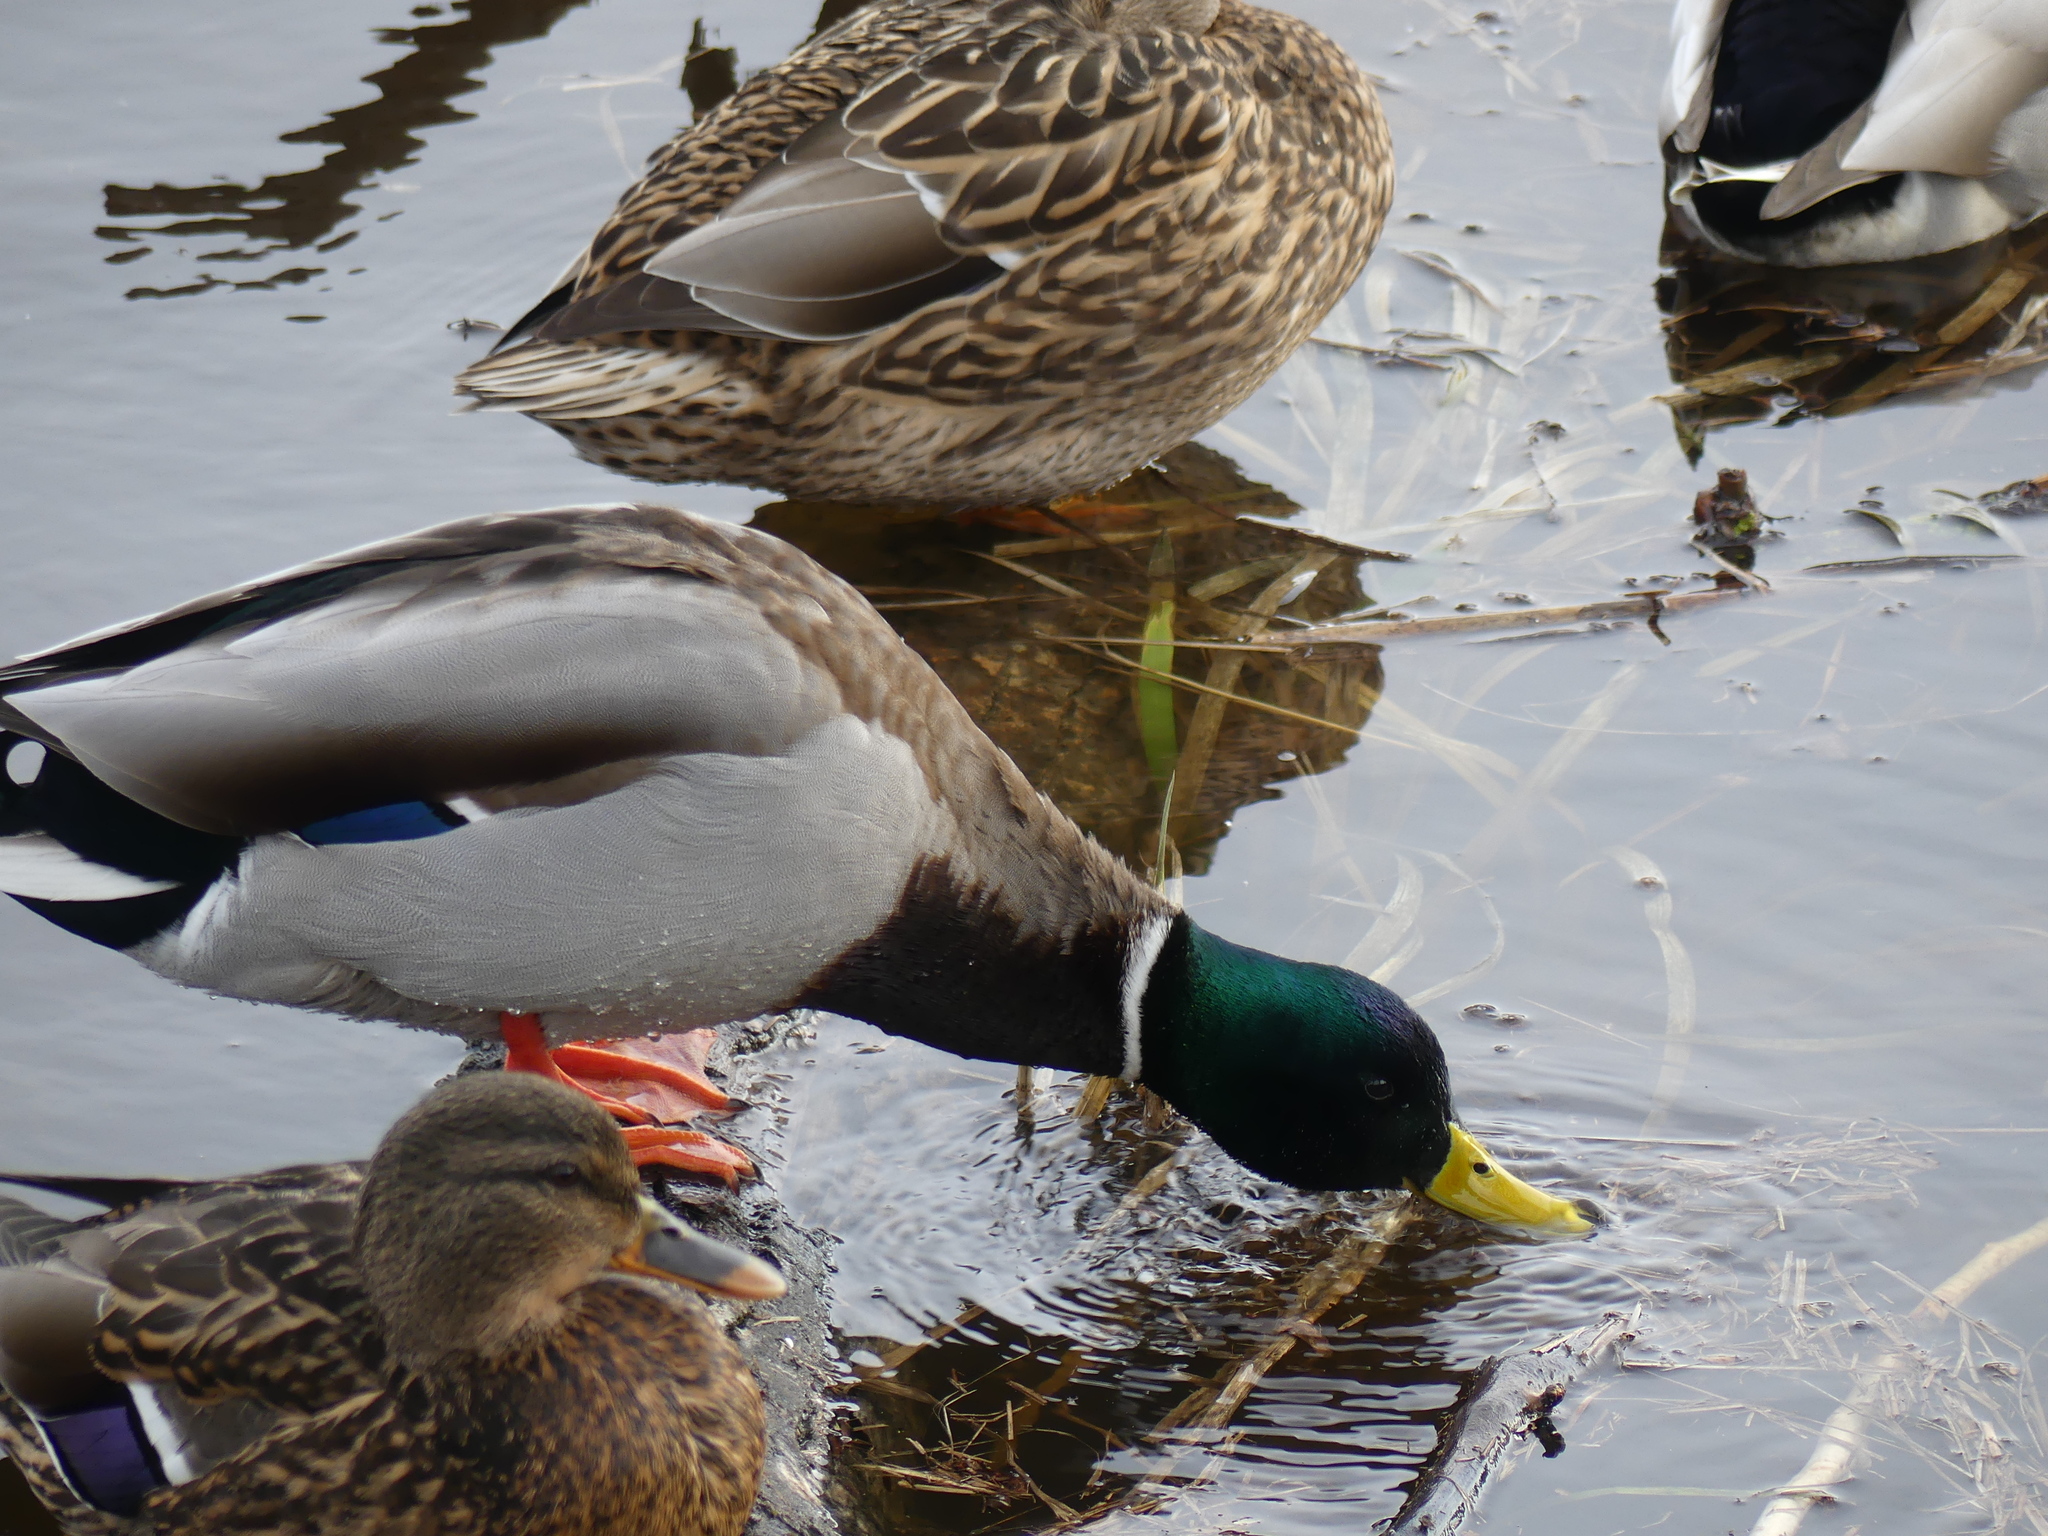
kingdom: Animalia
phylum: Chordata
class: Aves
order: Anseriformes
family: Anatidae
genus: Anas
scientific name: Anas platyrhynchos
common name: Mallard
